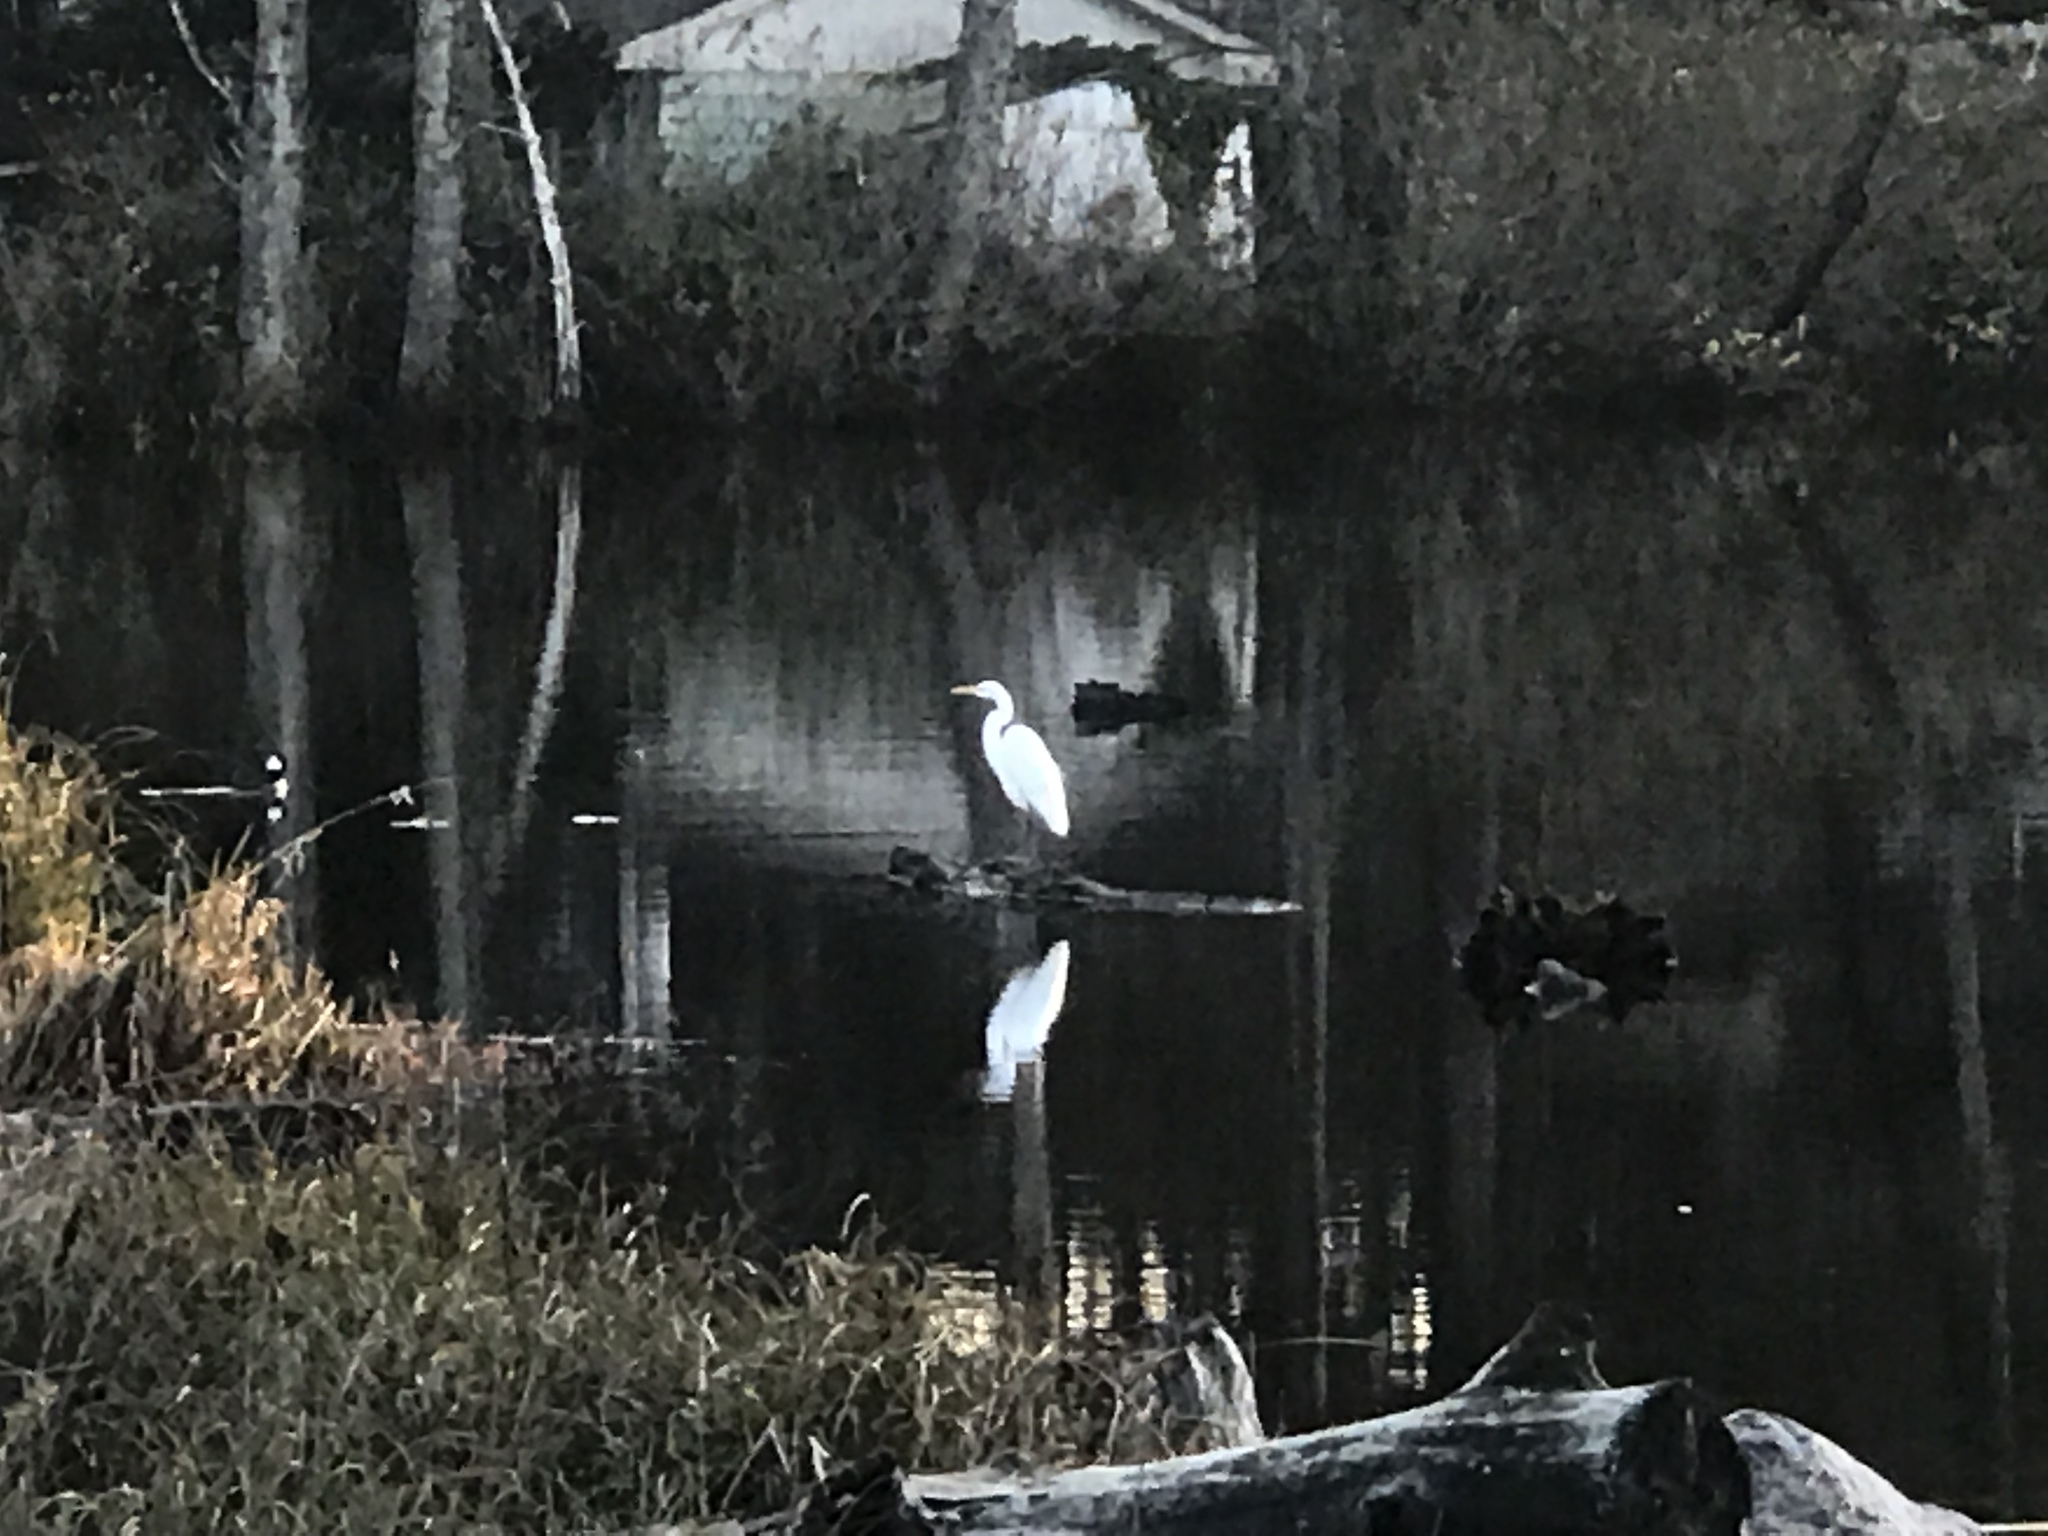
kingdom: Animalia
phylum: Chordata
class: Aves
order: Pelecaniformes
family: Ardeidae
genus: Ardea
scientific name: Ardea alba
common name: Great egret
